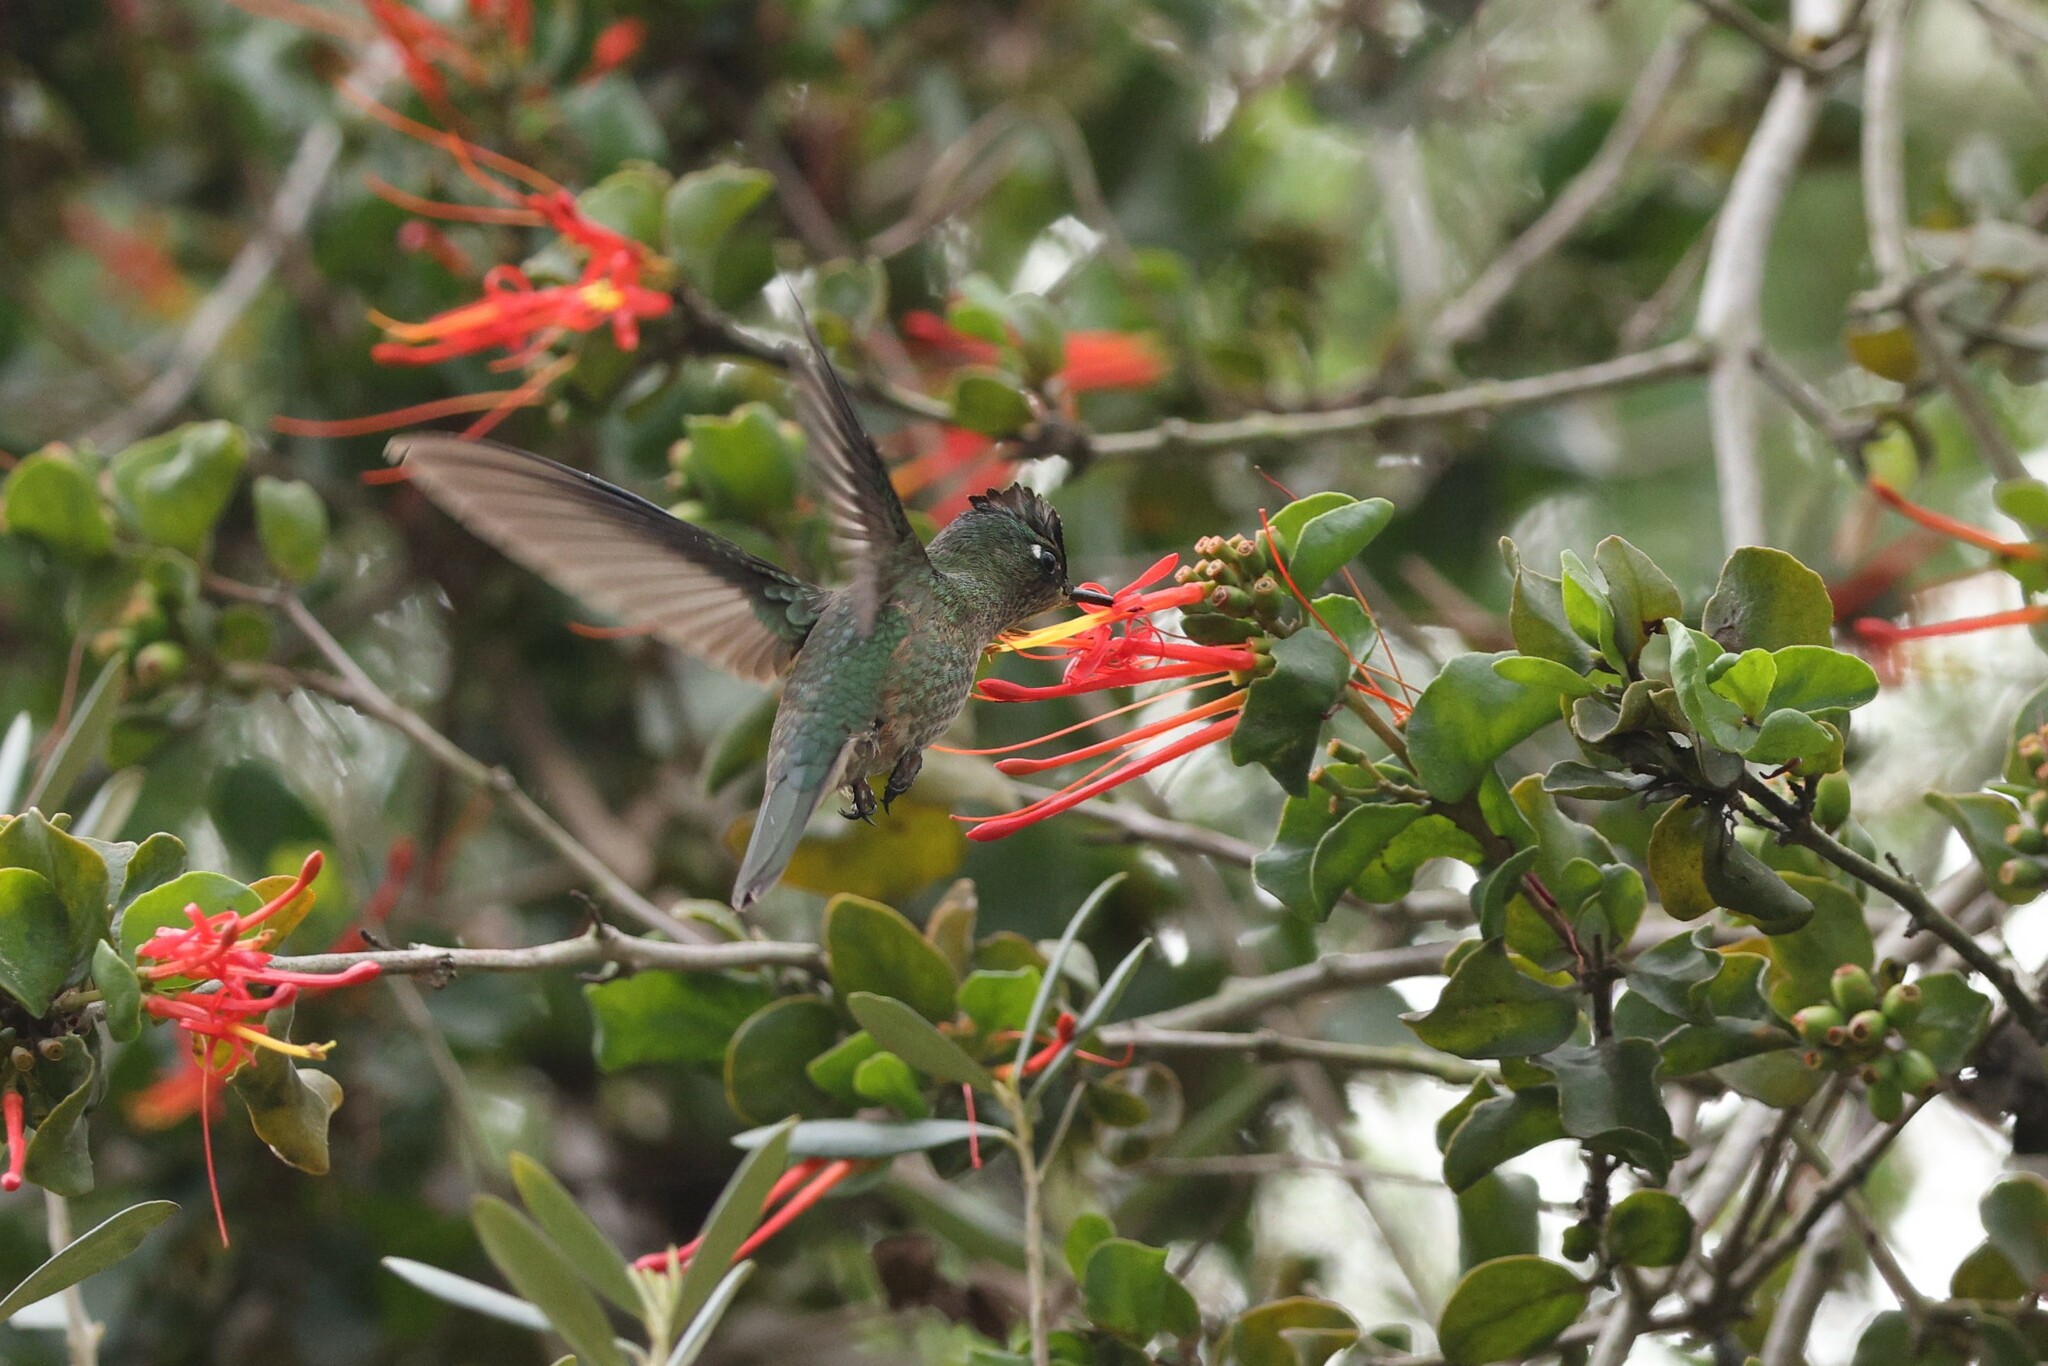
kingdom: Animalia
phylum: Chordata
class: Aves
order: Apodiformes
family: Trochilidae
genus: Sephanoides
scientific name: Sephanoides sephaniodes
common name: Green-backed firecrown
